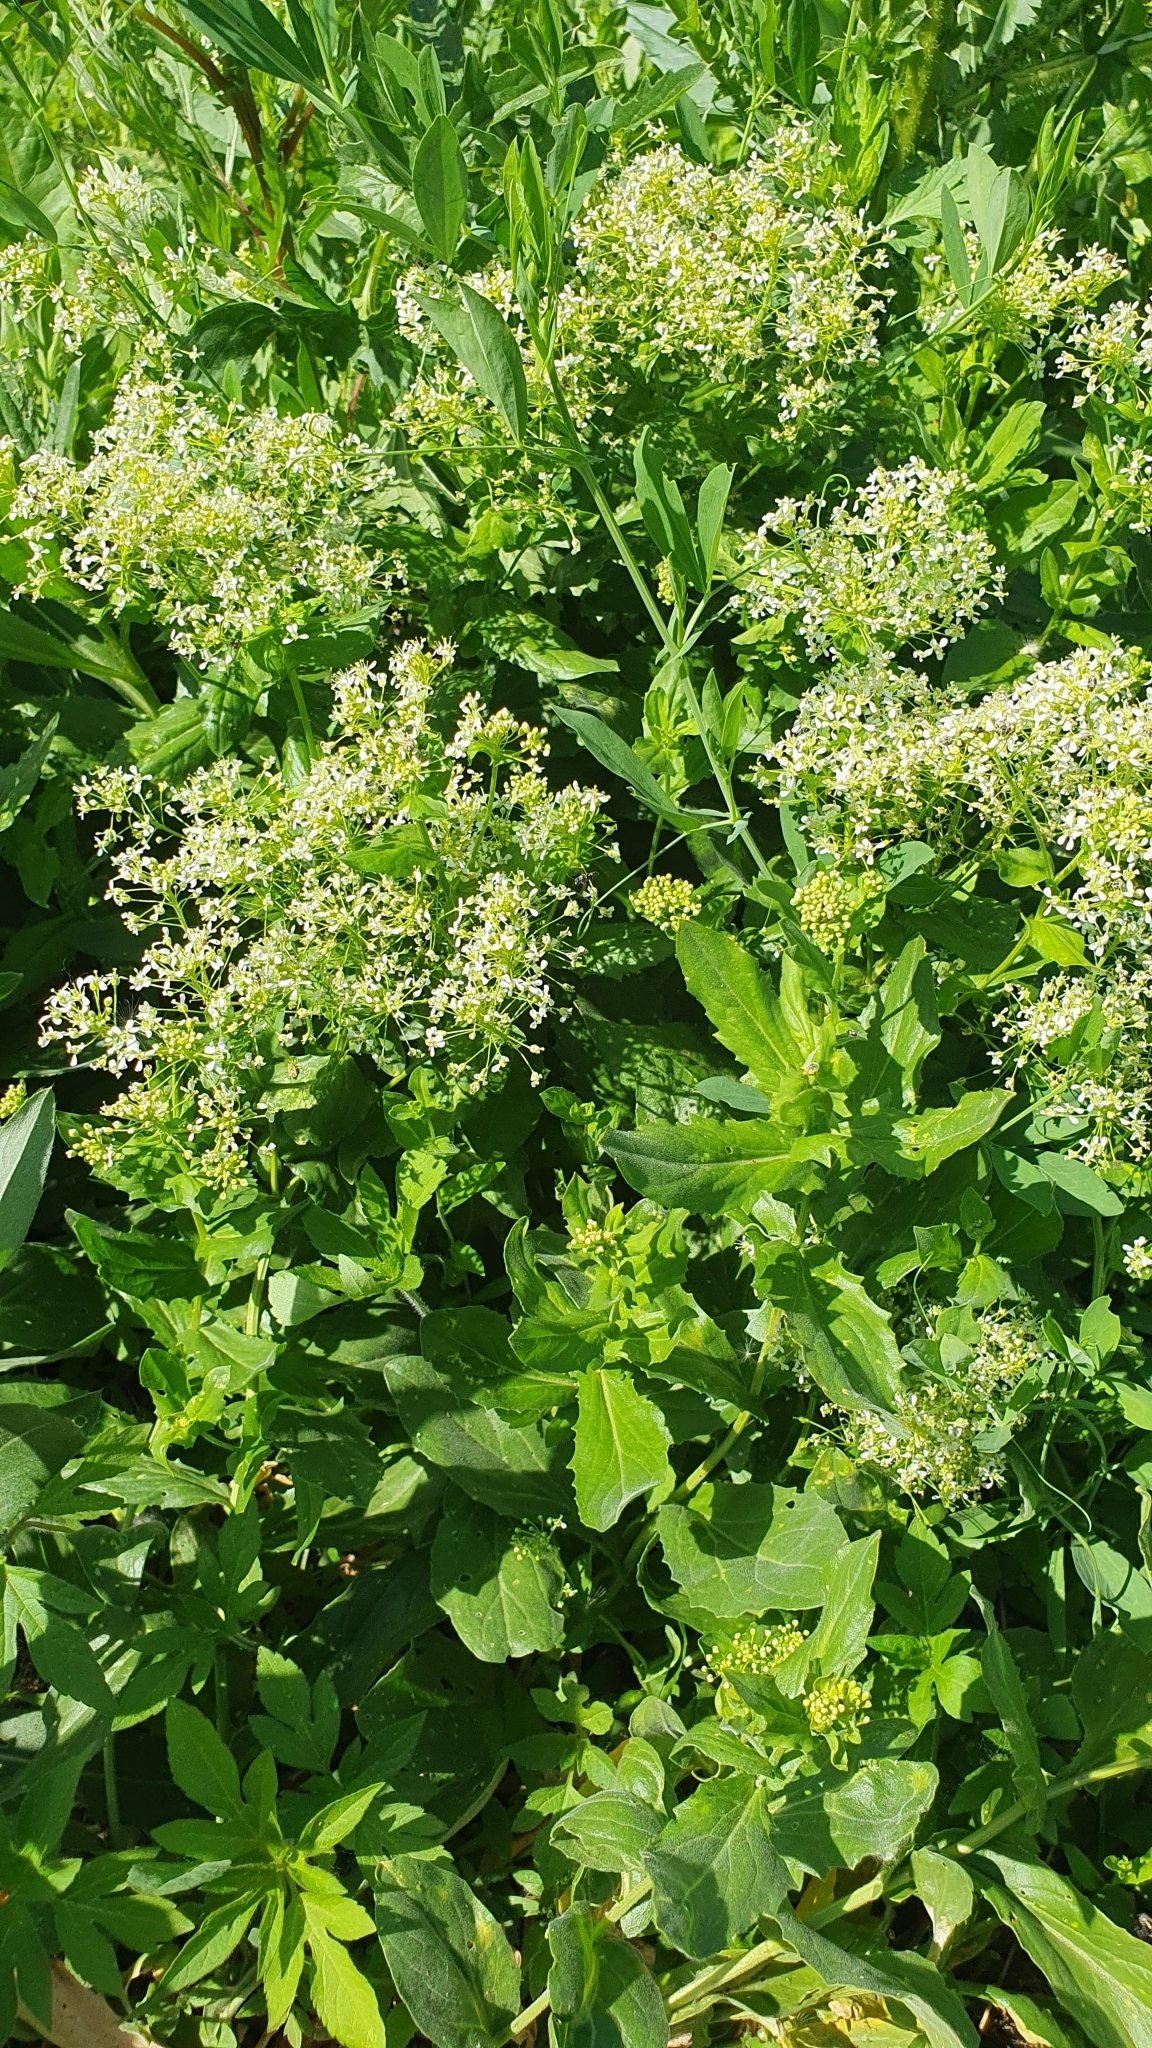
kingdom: Plantae
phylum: Tracheophyta
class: Magnoliopsida
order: Brassicales
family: Brassicaceae
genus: Lepidium
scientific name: Lepidium draba
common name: Hoary cress
